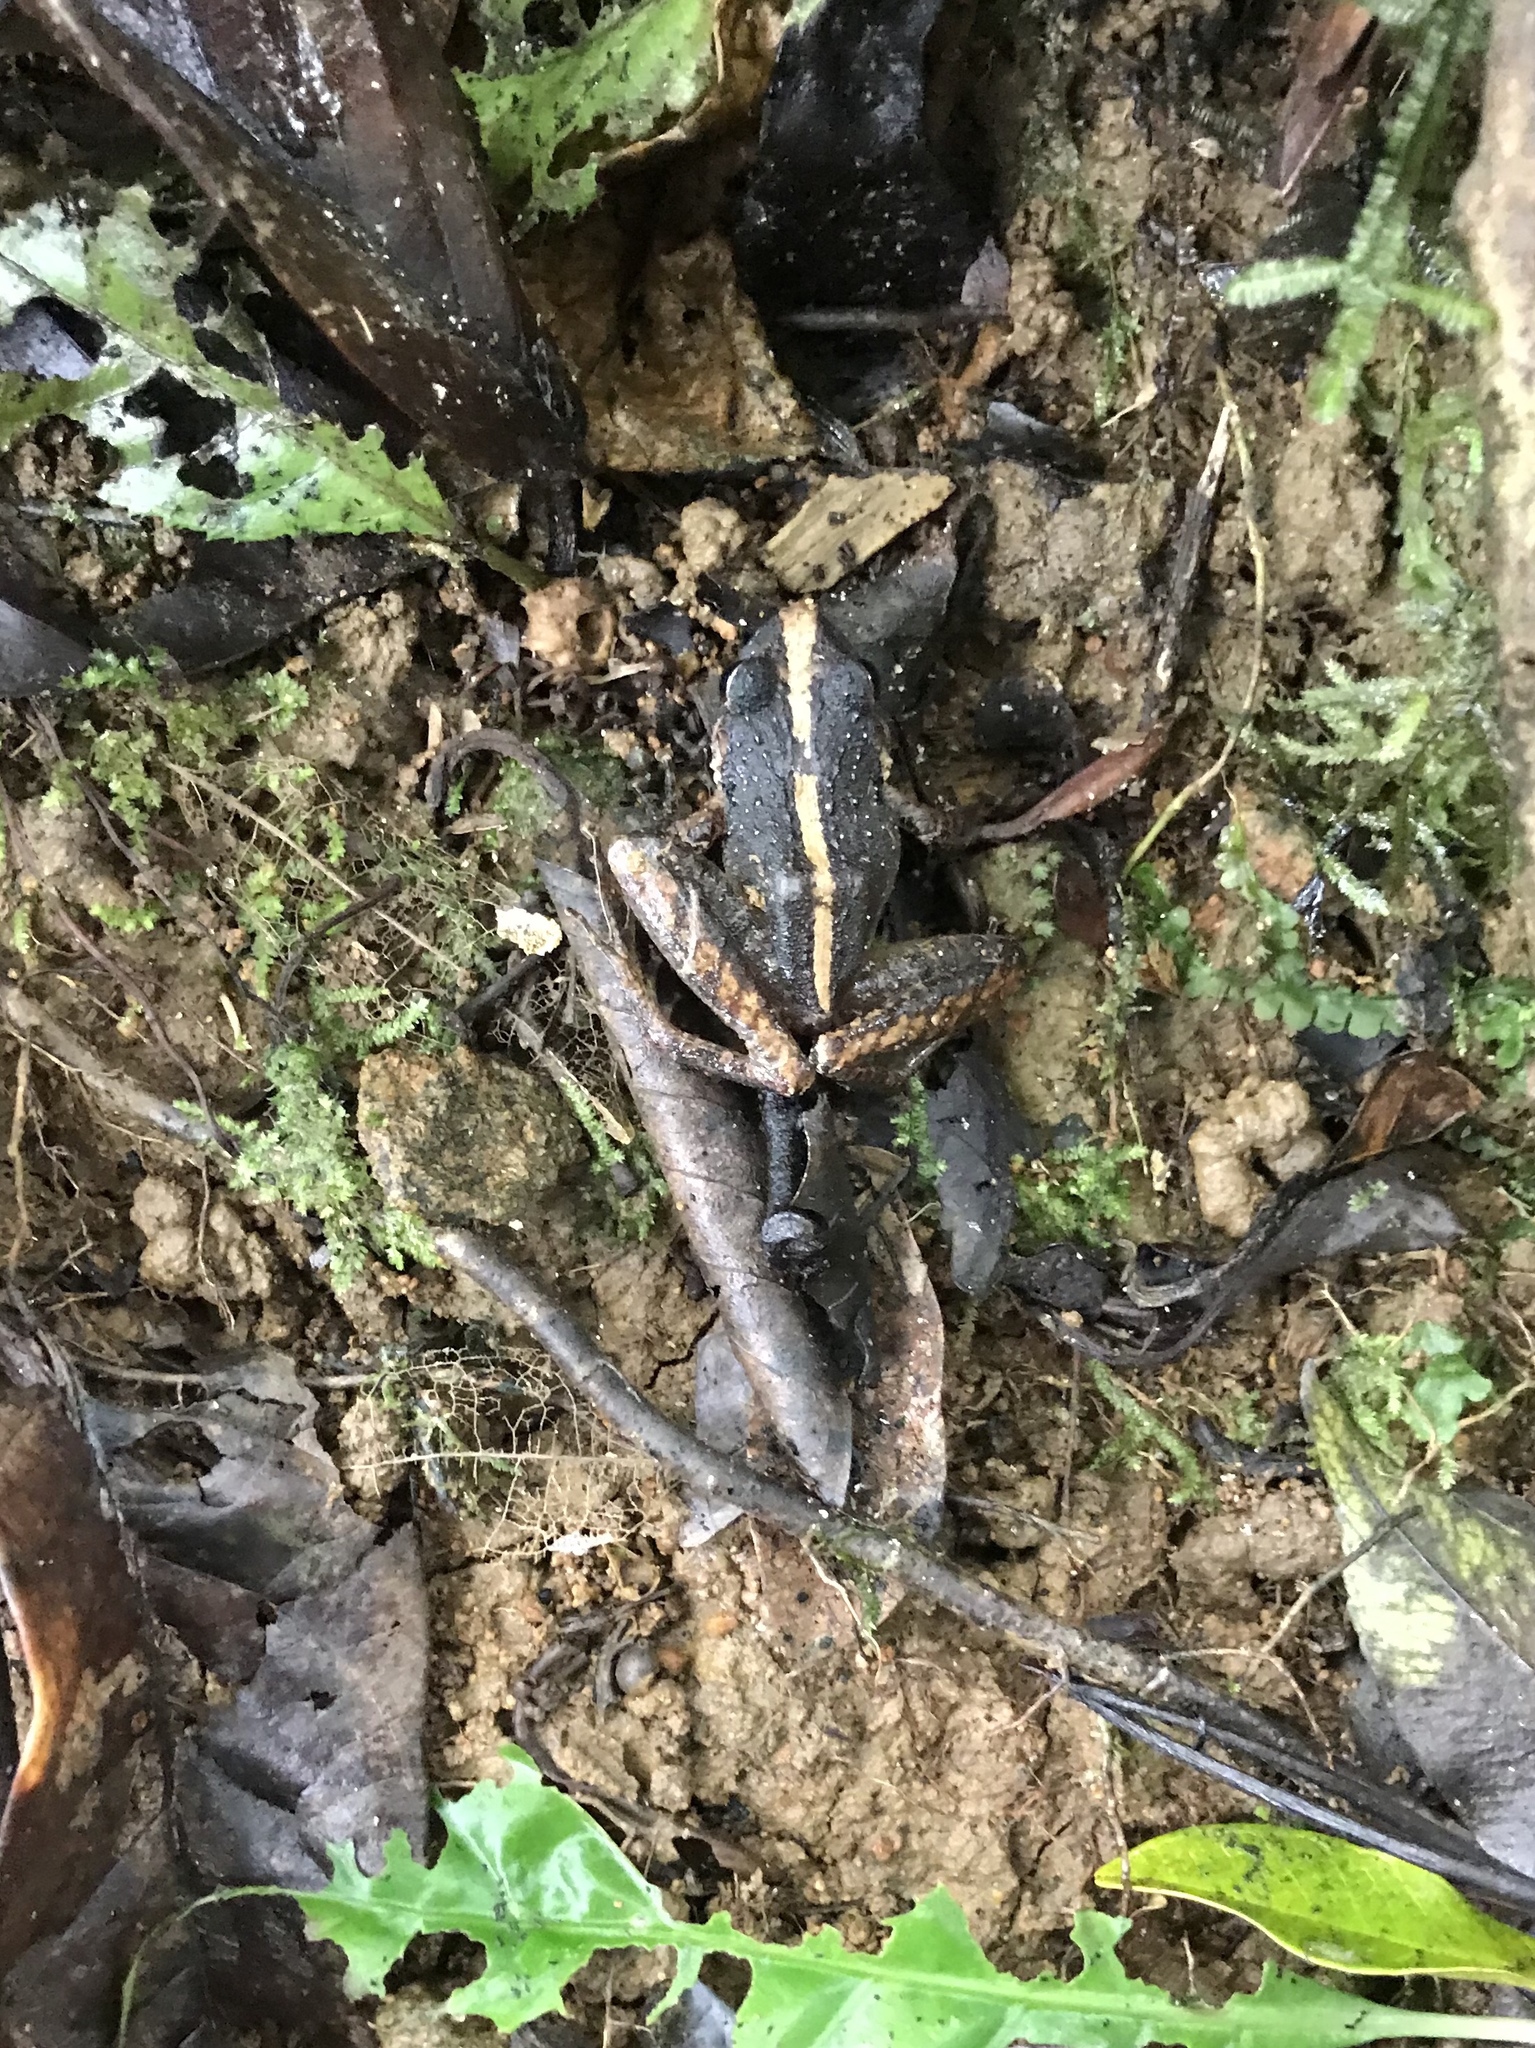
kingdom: Animalia
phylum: Chordata
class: Amphibia
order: Anura
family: Craugastoridae
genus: Craugastor
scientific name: Craugastor fitzingeri
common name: Fitzinger's robber frog
